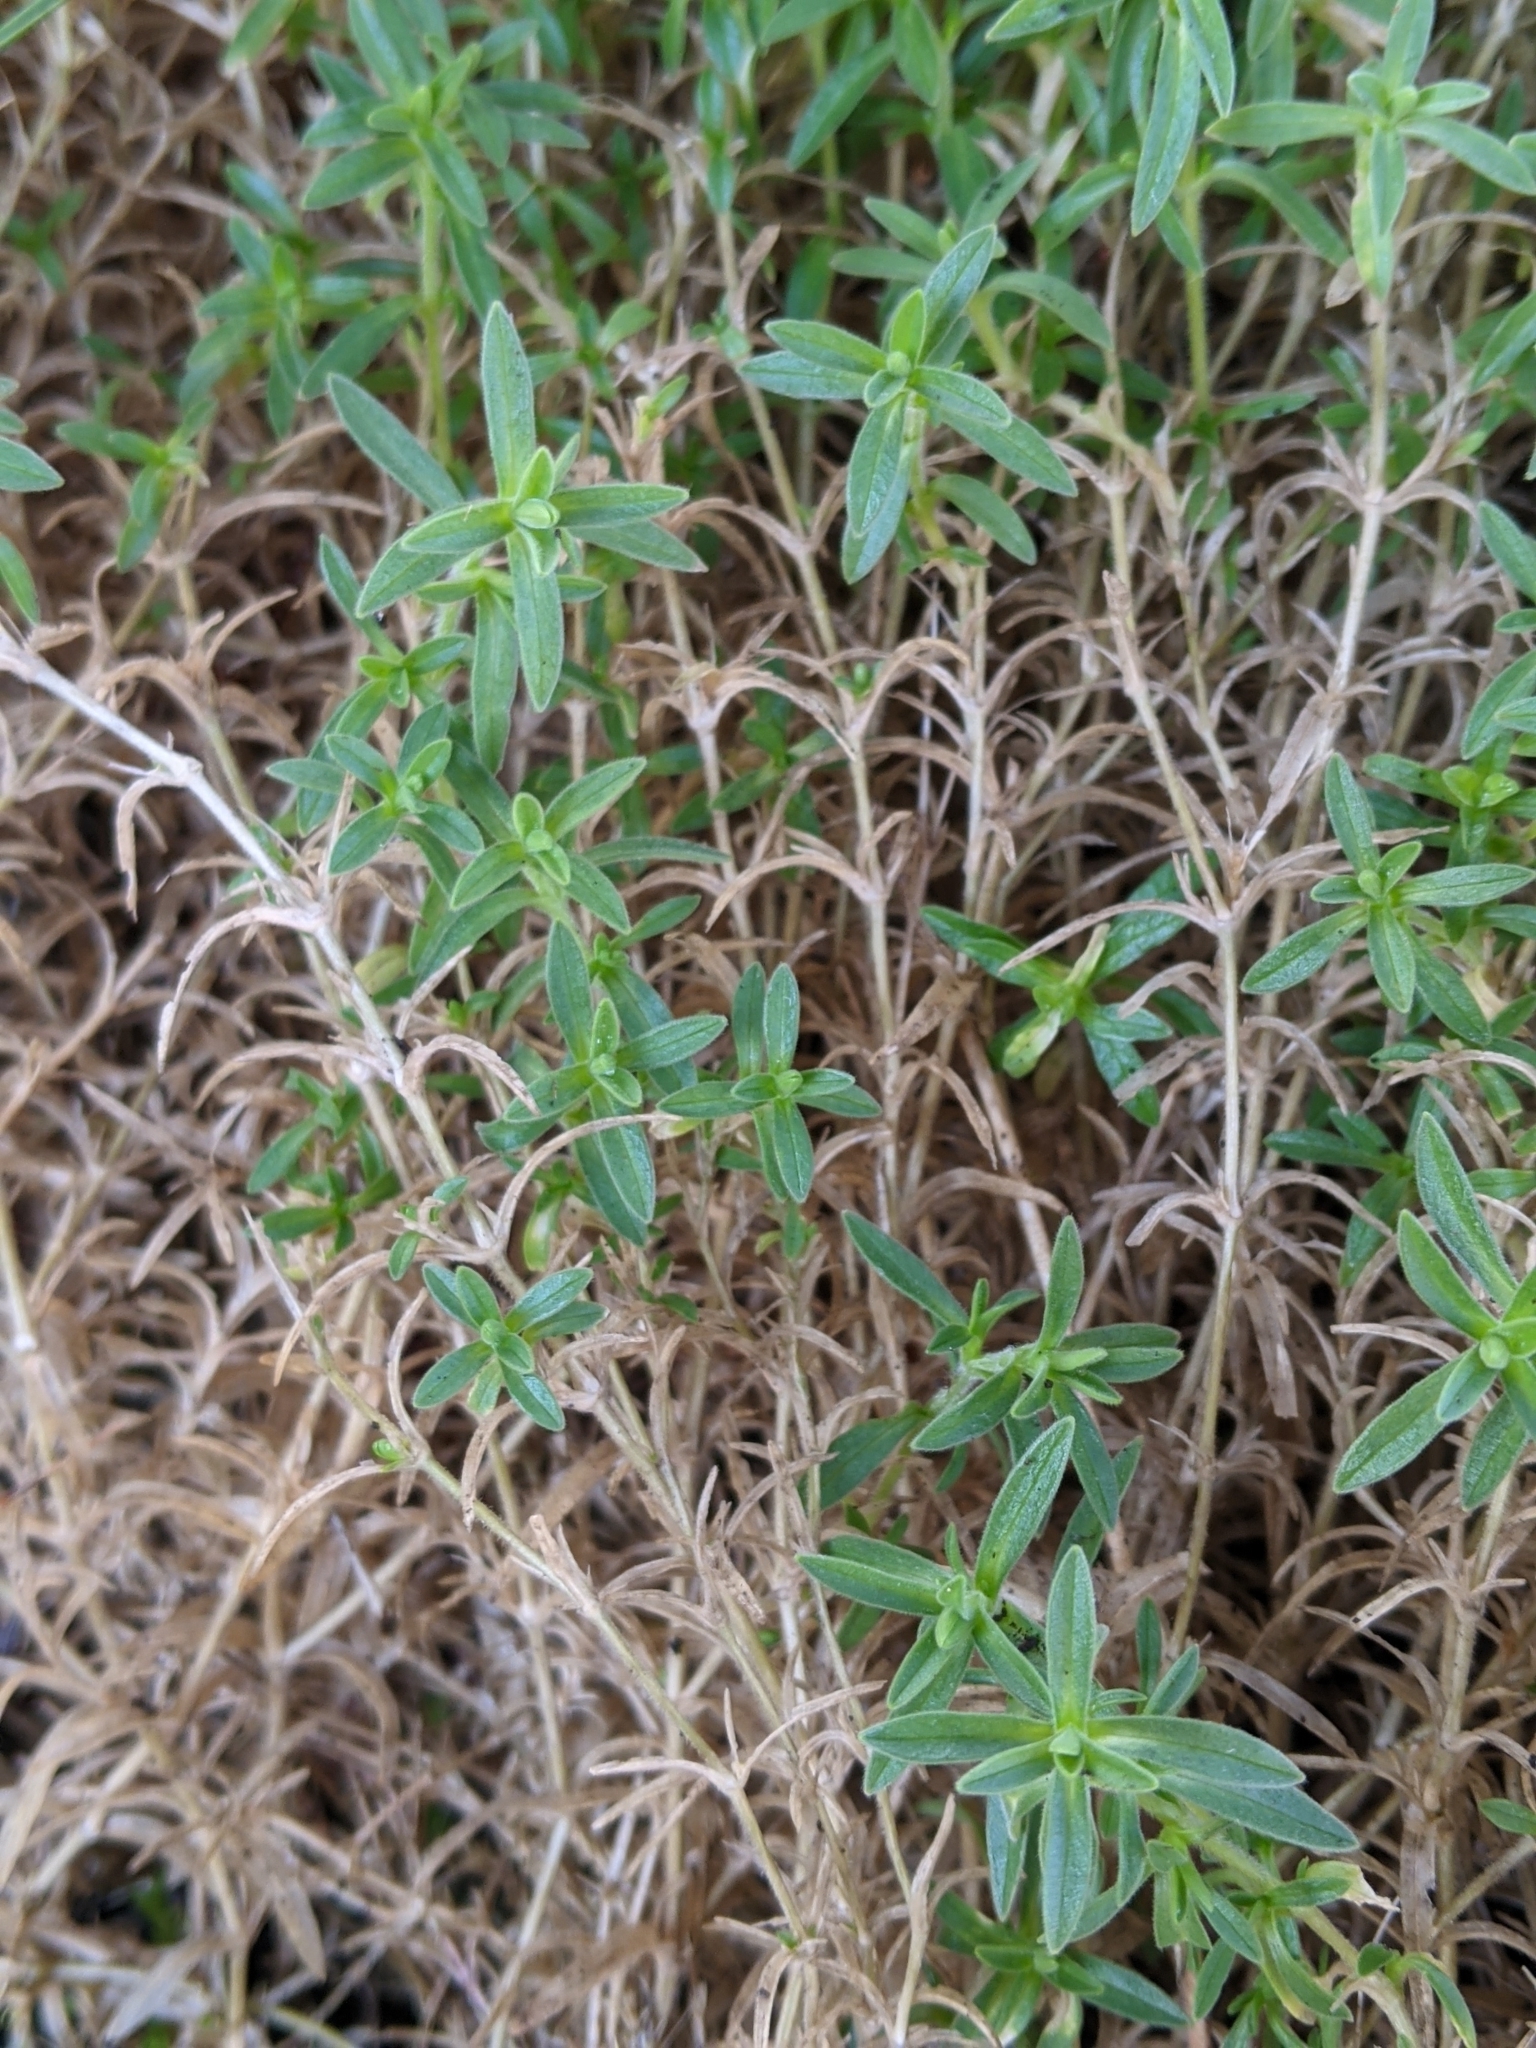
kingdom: Plantae
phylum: Tracheophyta
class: Magnoliopsida
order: Caryophyllales
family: Caryophyllaceae
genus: Cerastium
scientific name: Cerastium arvense
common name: Field mouse-ear
